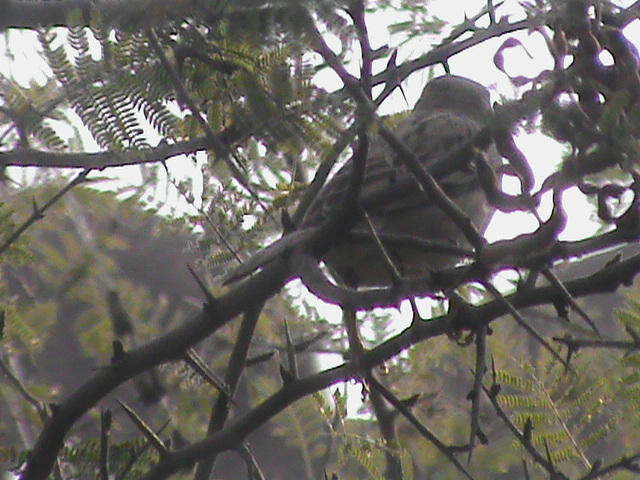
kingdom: Animalia
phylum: Chordata
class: Aves
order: Passeriformes
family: Passeridae
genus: Passer
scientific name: Passer domesticus
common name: House sparrow
